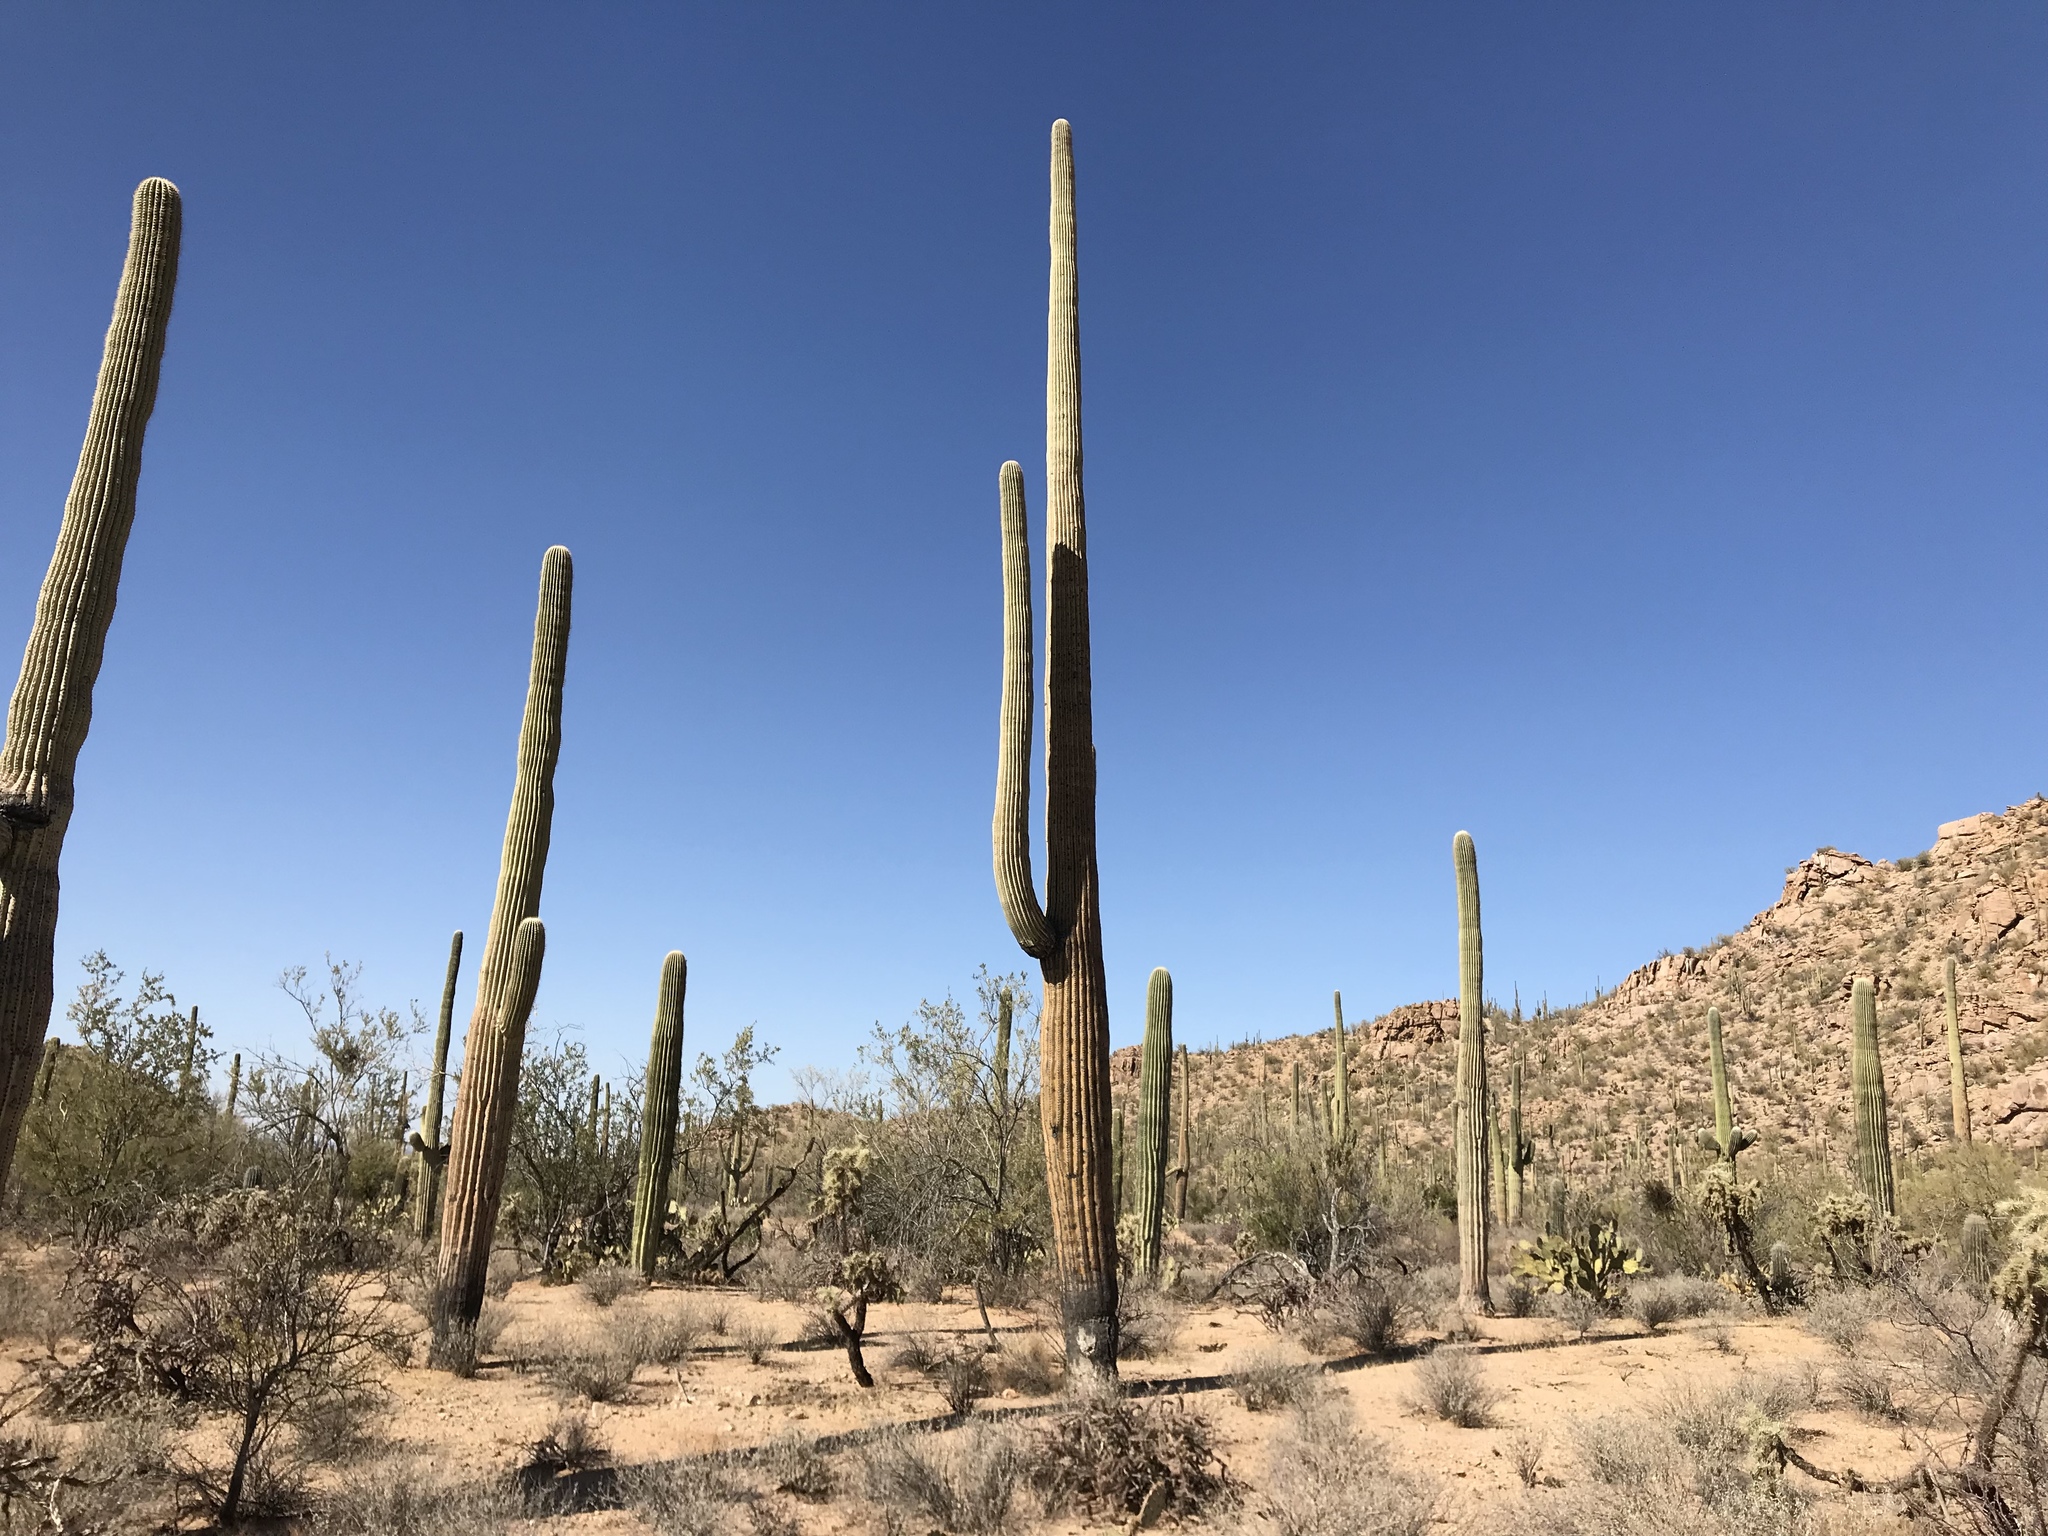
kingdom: Plantae
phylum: Tracheophyta
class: Magnoliopsida
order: Caryophyllales
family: Cactaceae
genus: Carnegiea
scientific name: Carnegiea gigantea
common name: Saguaro
